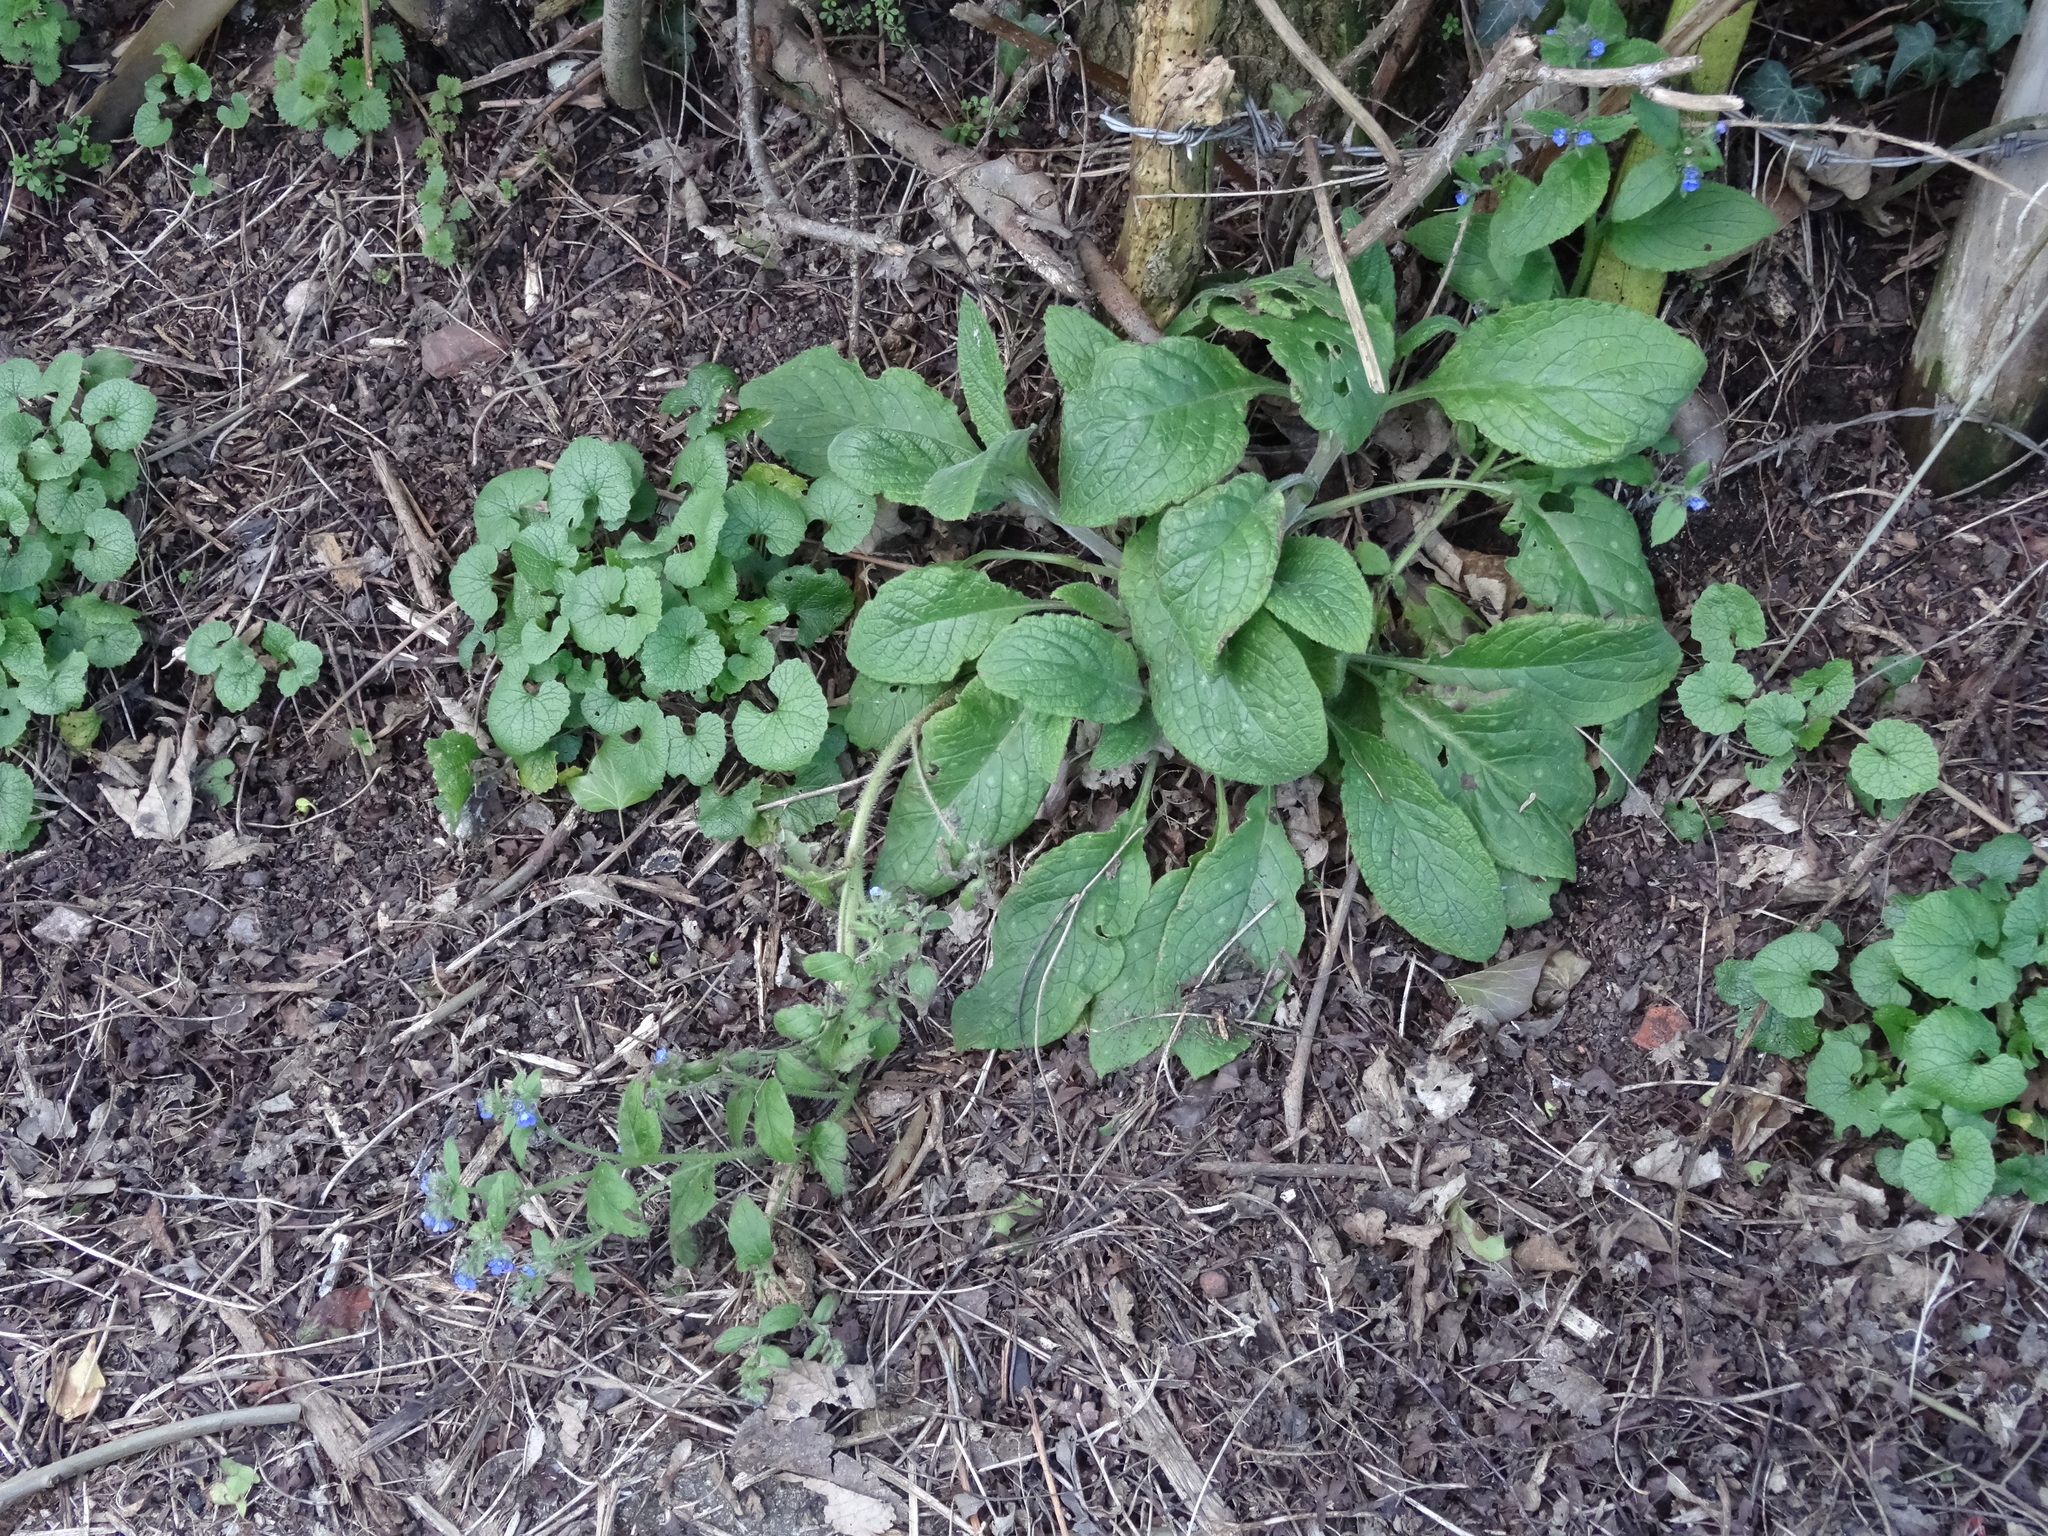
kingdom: Plantae
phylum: Tracheophyta
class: Magnoliopsida
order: Boraginales
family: Boraginaceae
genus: Pentaglottis
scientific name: Pentaglottis sempervirens
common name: Green alkanet
